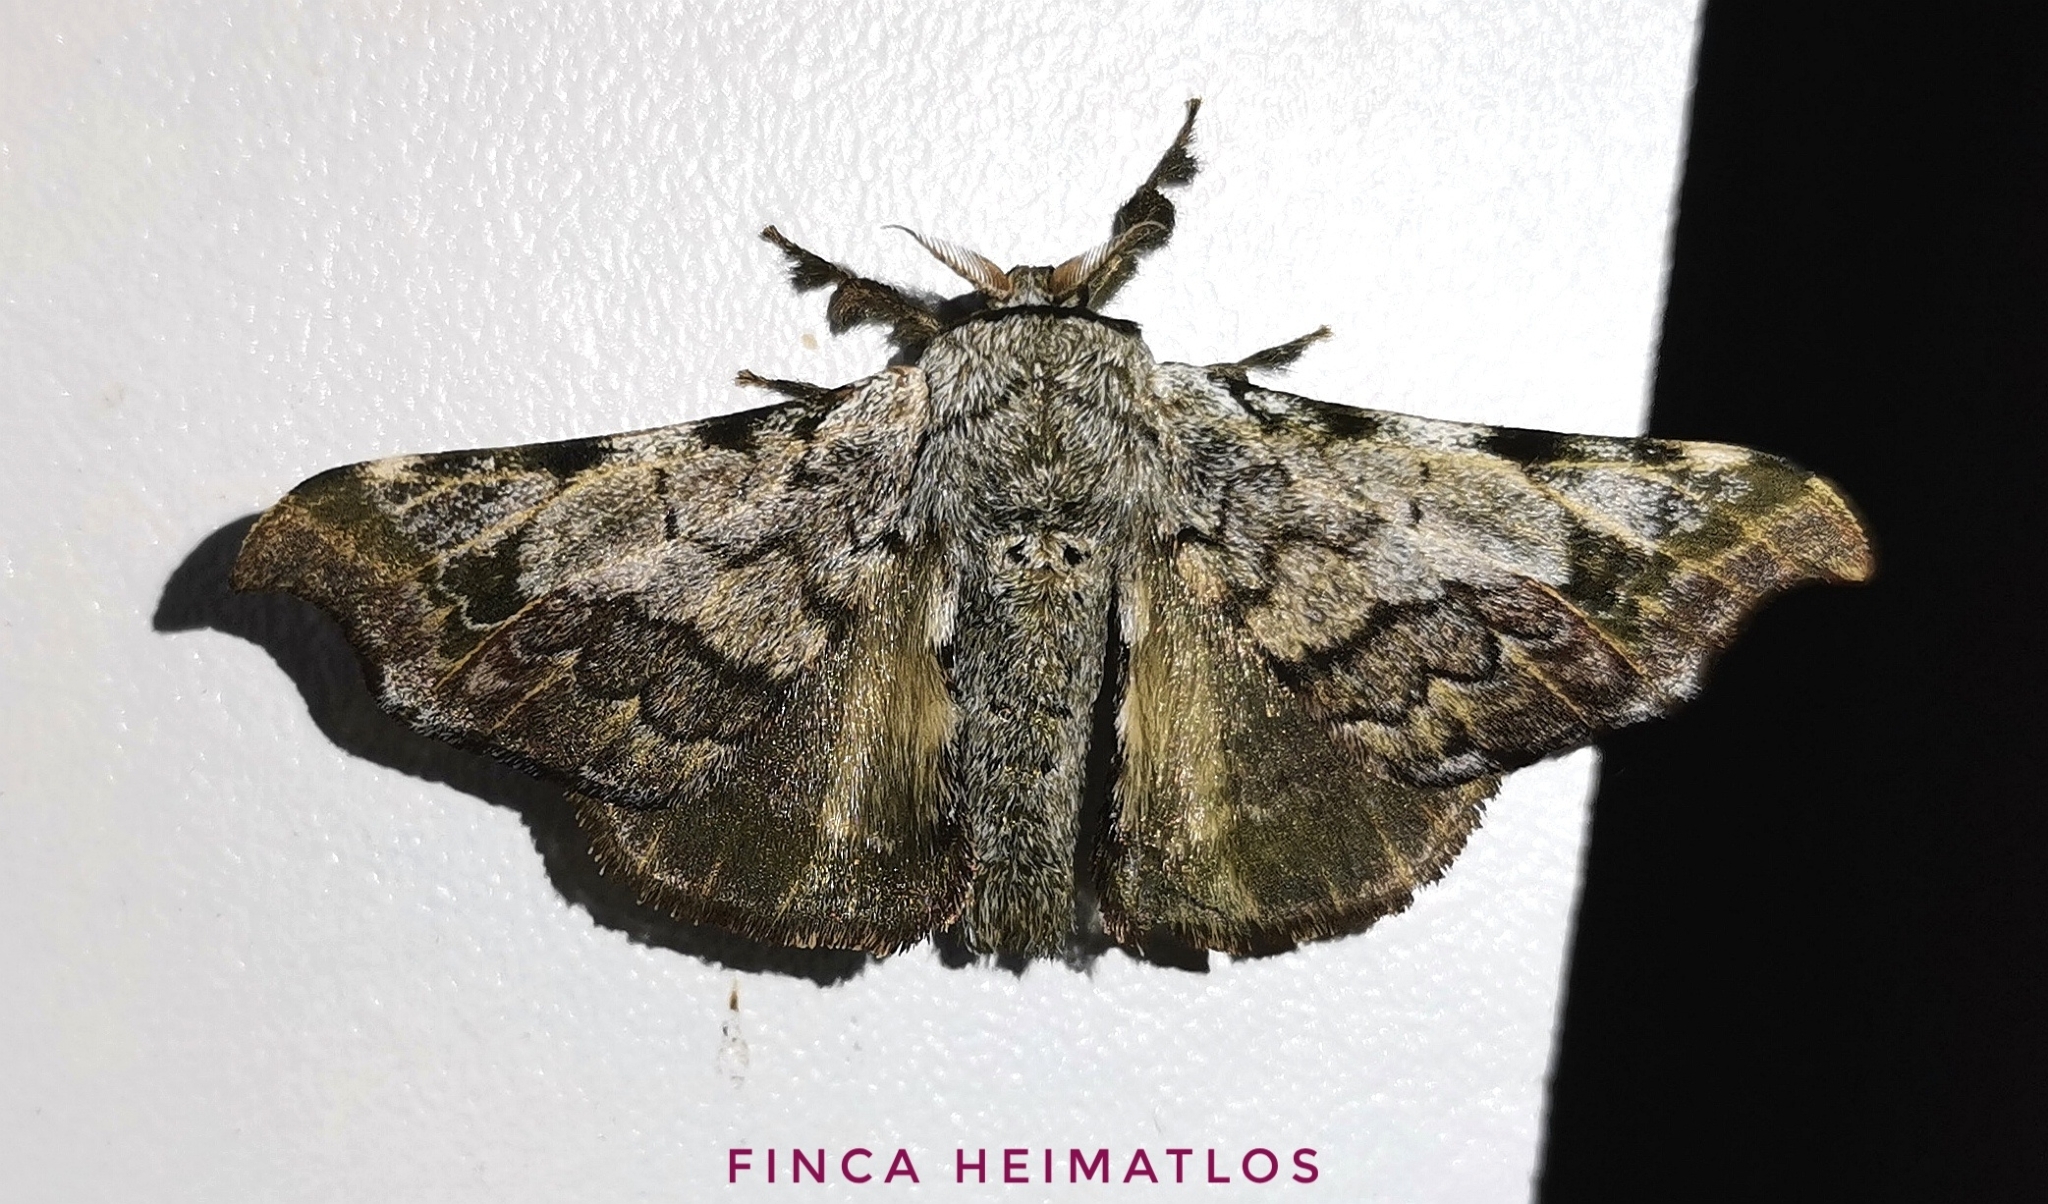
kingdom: Animalia
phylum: Arthropoda
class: Insecta
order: Lepidoptera
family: Bombycidae
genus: Quentalia
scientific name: Quentalia ephonia
